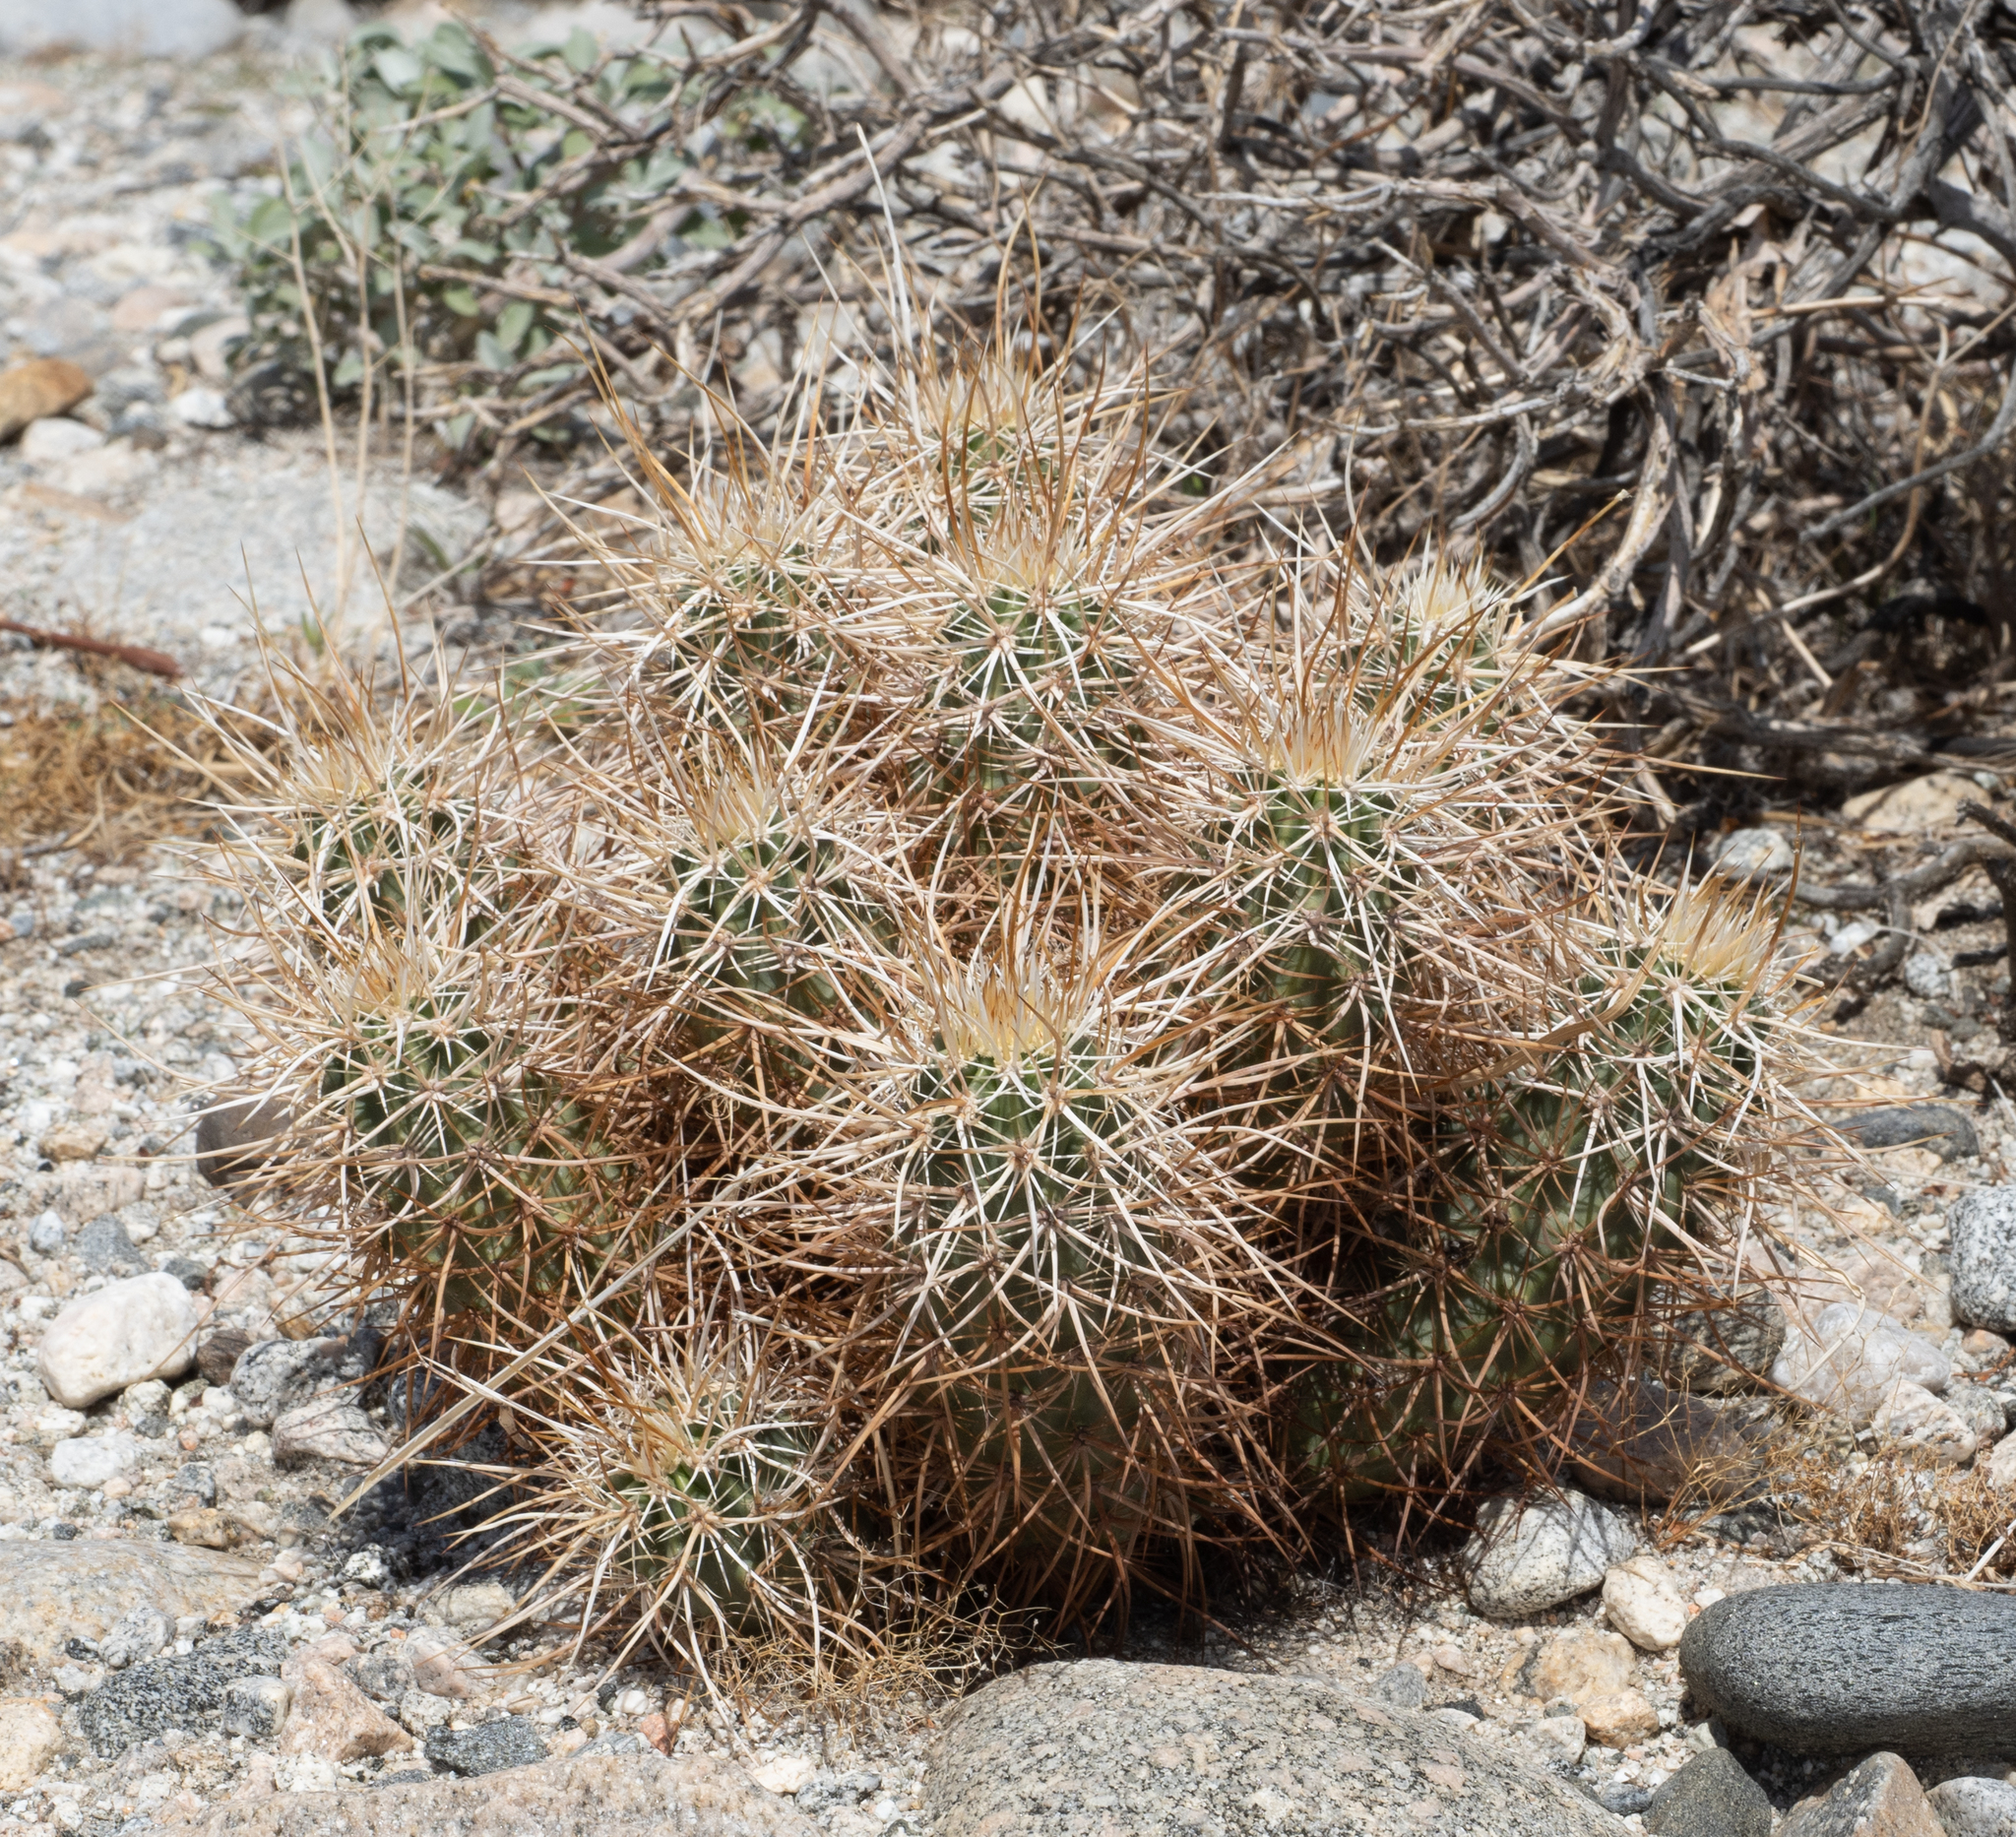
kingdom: Plantae
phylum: Tracheophyta
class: Magnoliopsida
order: Caryophyllales
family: Cactaceae
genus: Echinocereus
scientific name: Echinocereus engelmannii
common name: Engelmann's hedgehog cactus
